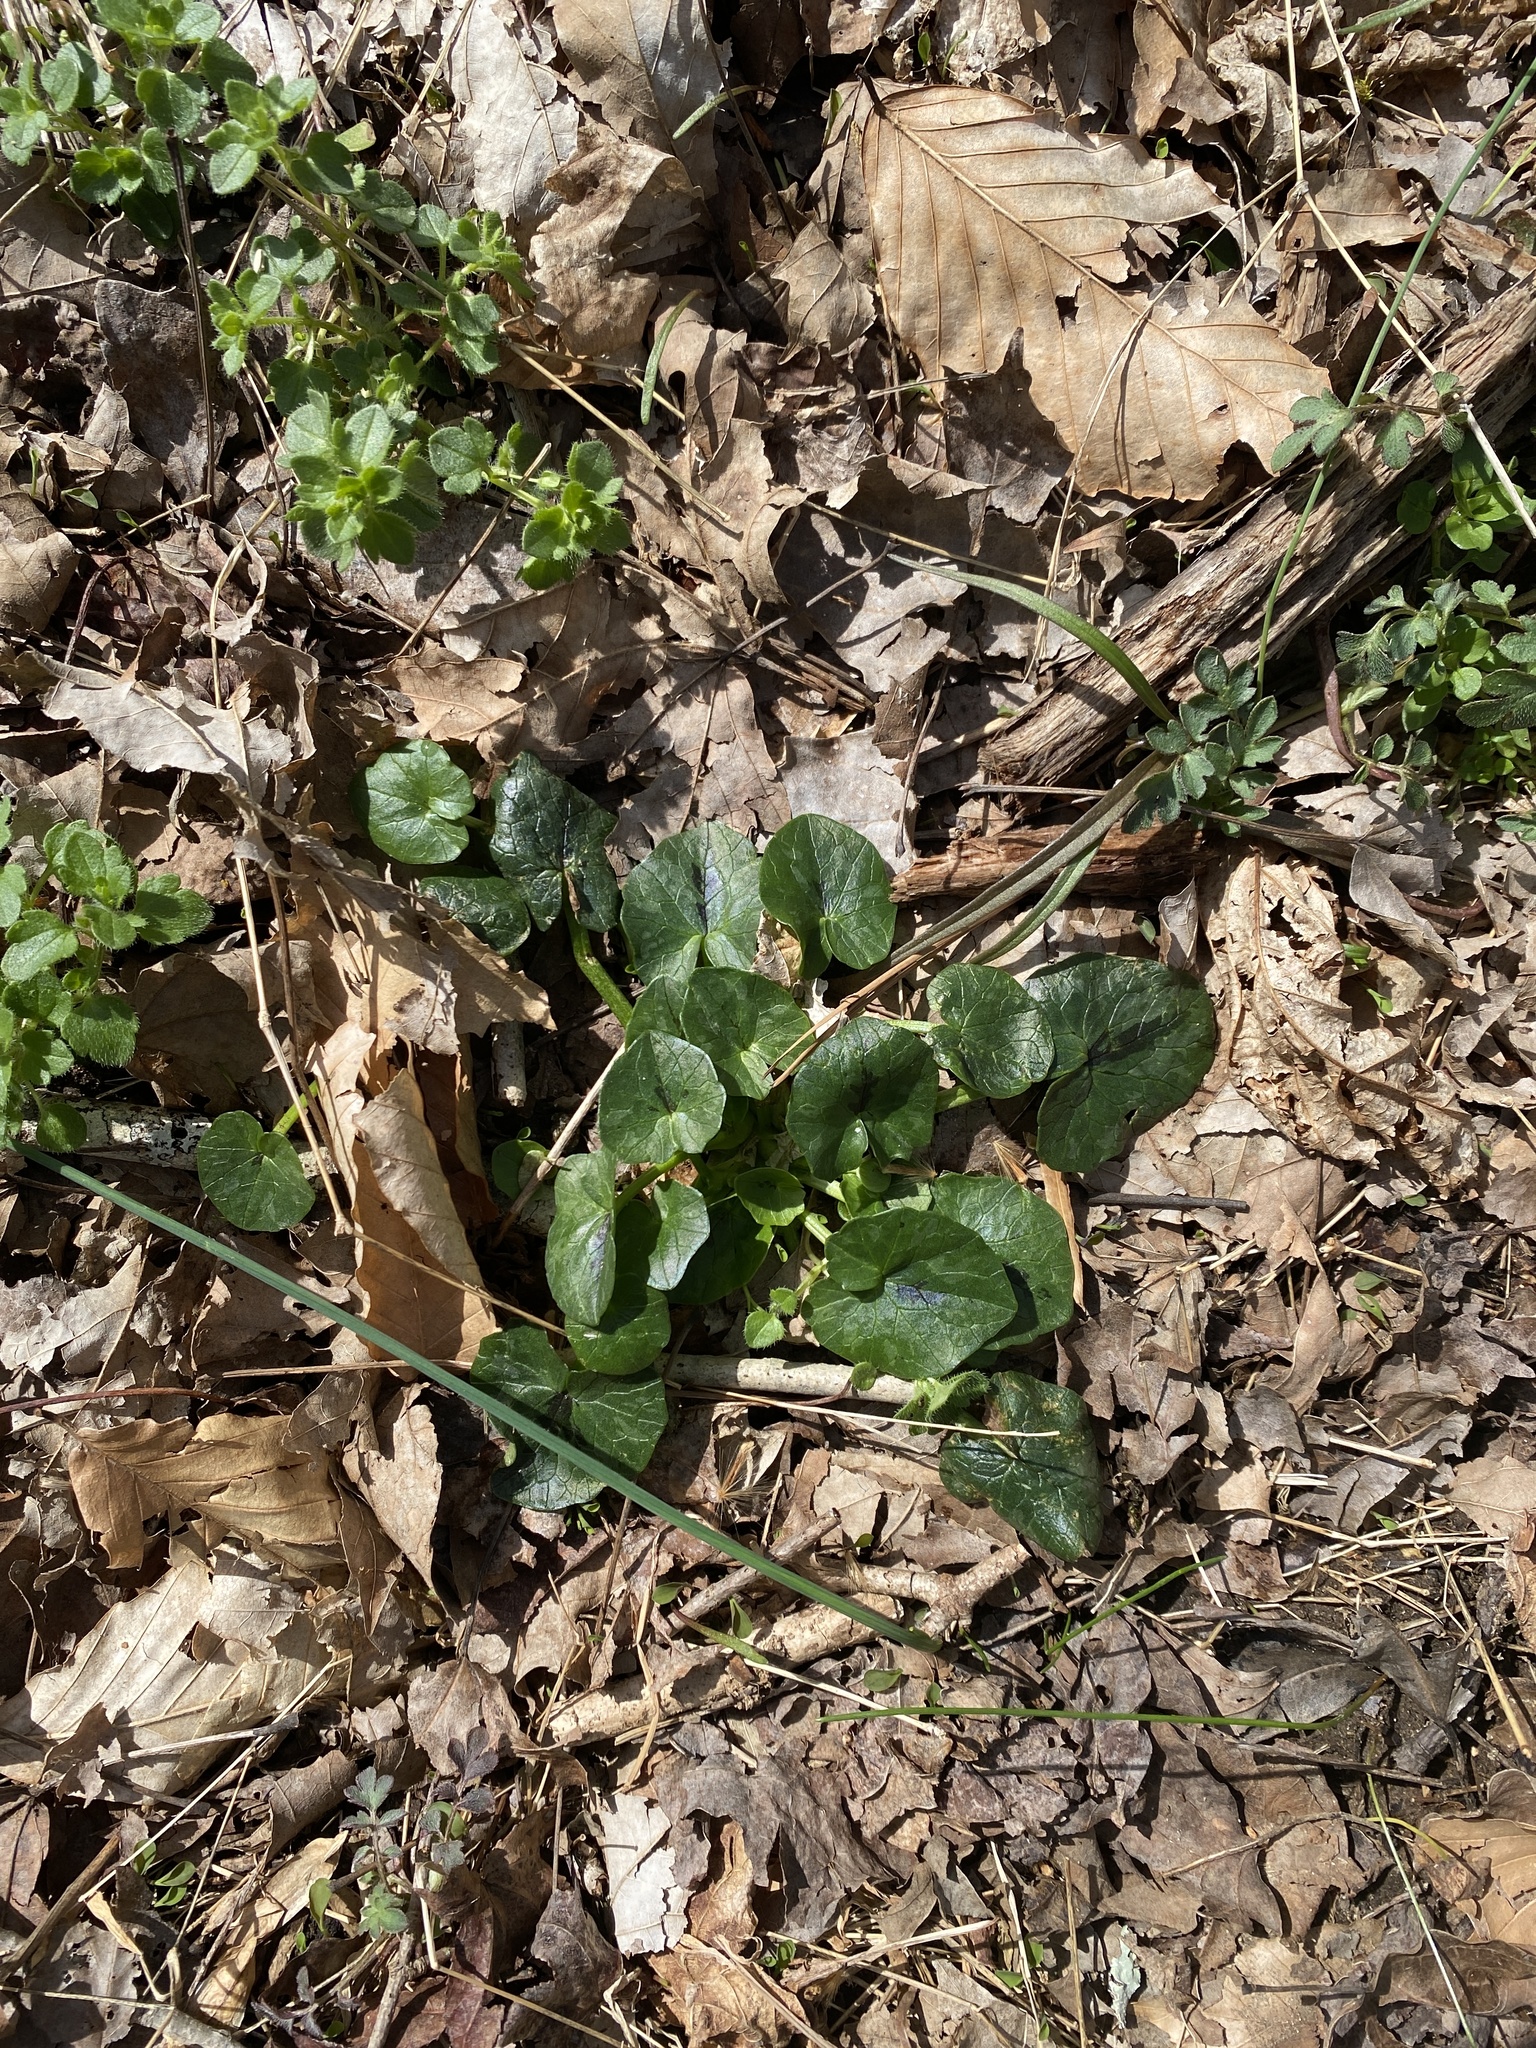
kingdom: Plantae
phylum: Tracheophyta
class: Magnoliopsida
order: Ranunculales
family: Ranunculaceae
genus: Ficaria
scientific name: Ficaria verna
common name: Lesser celandine
